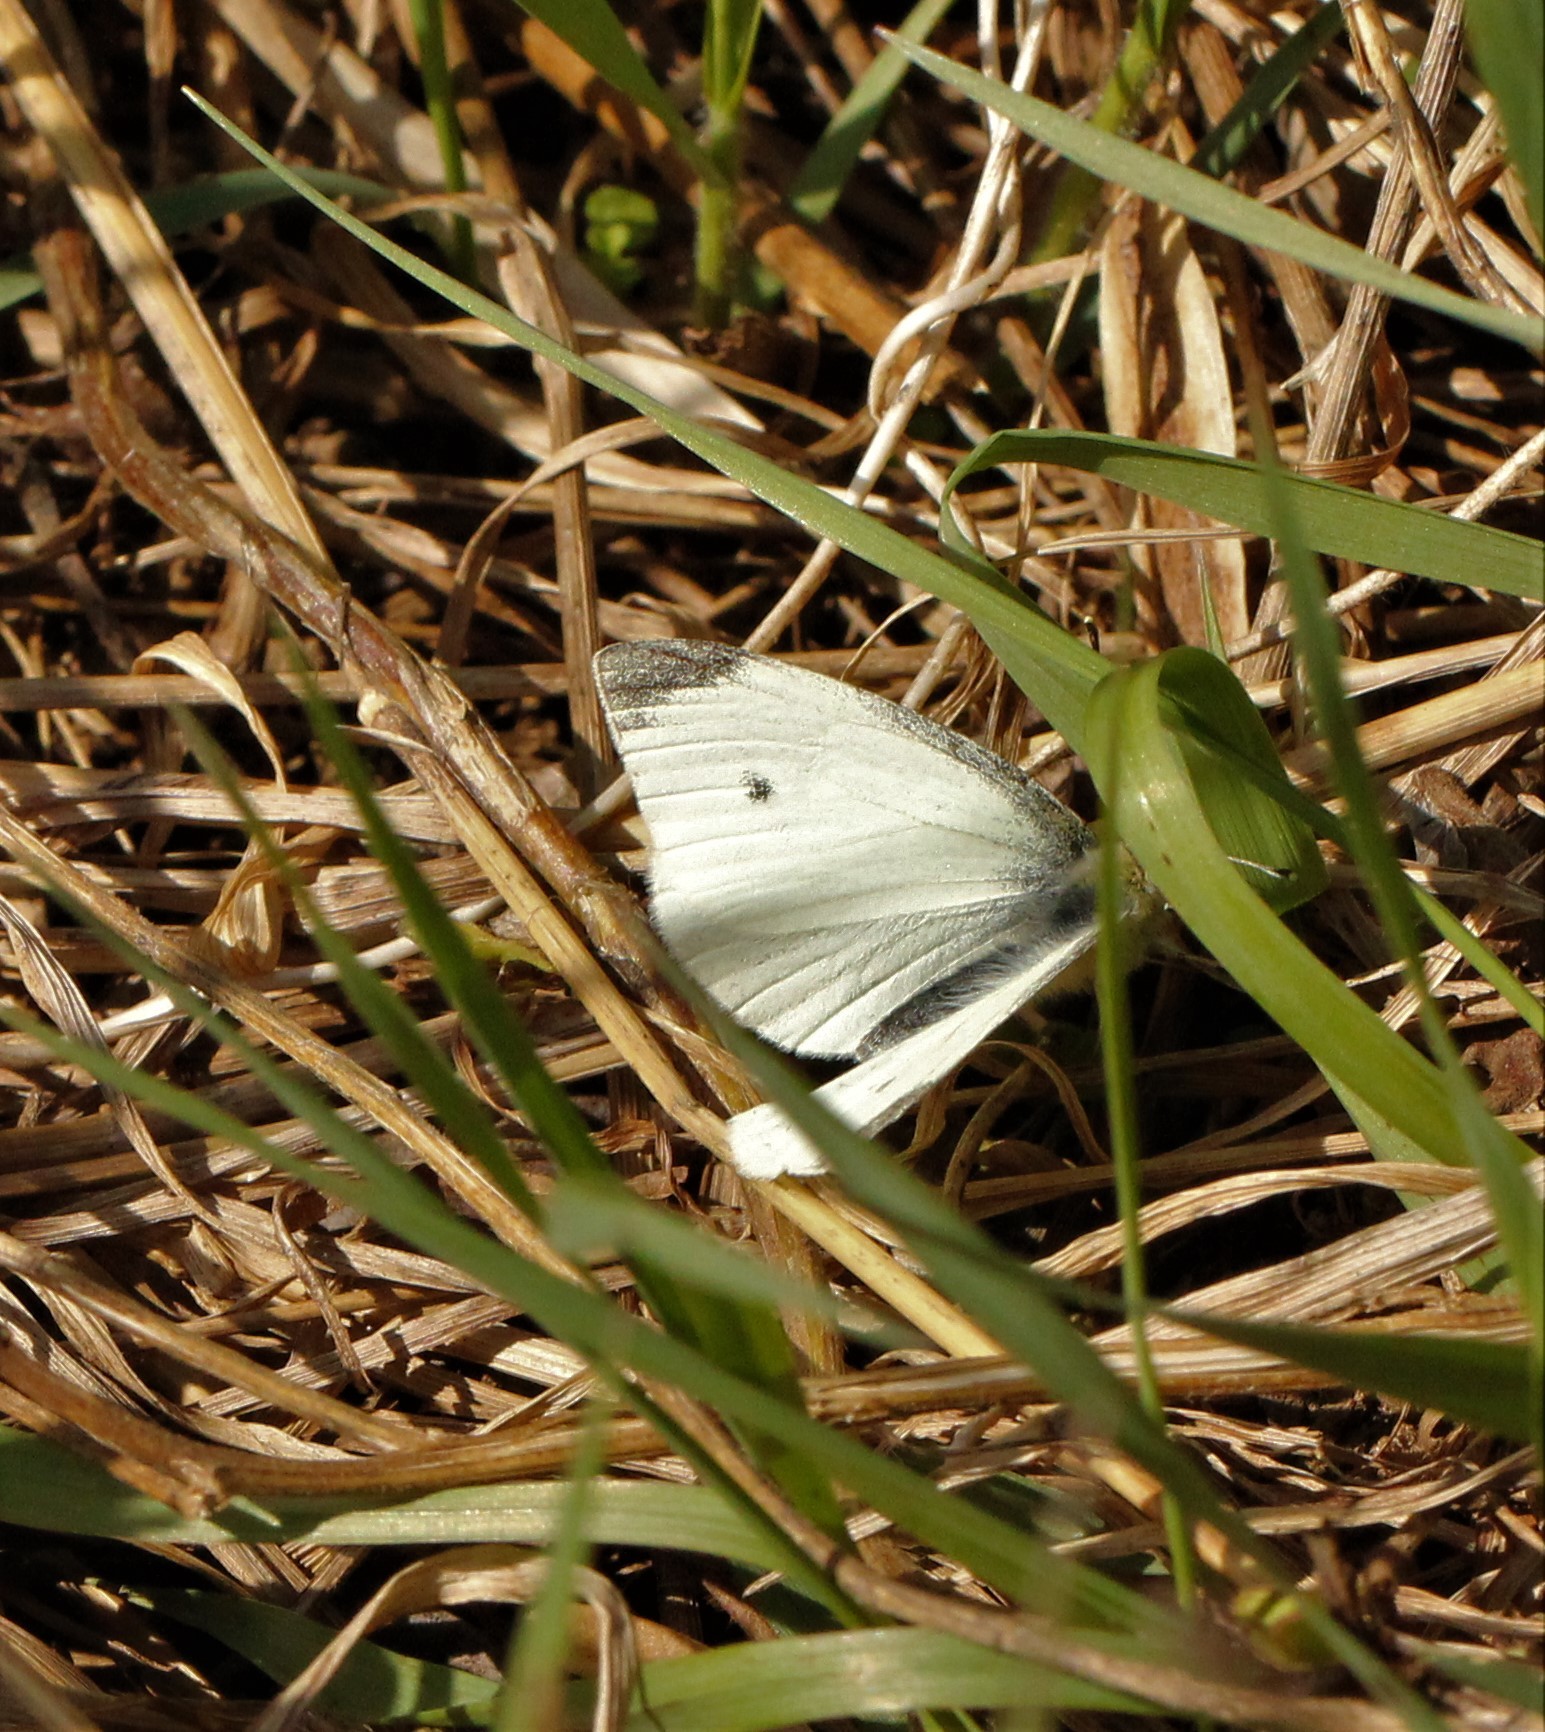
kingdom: Animalia
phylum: Arthropoda
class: Insecta
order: Lepidoptera
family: Pieridae
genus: Pieris
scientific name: Pieris rapae
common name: Small white
